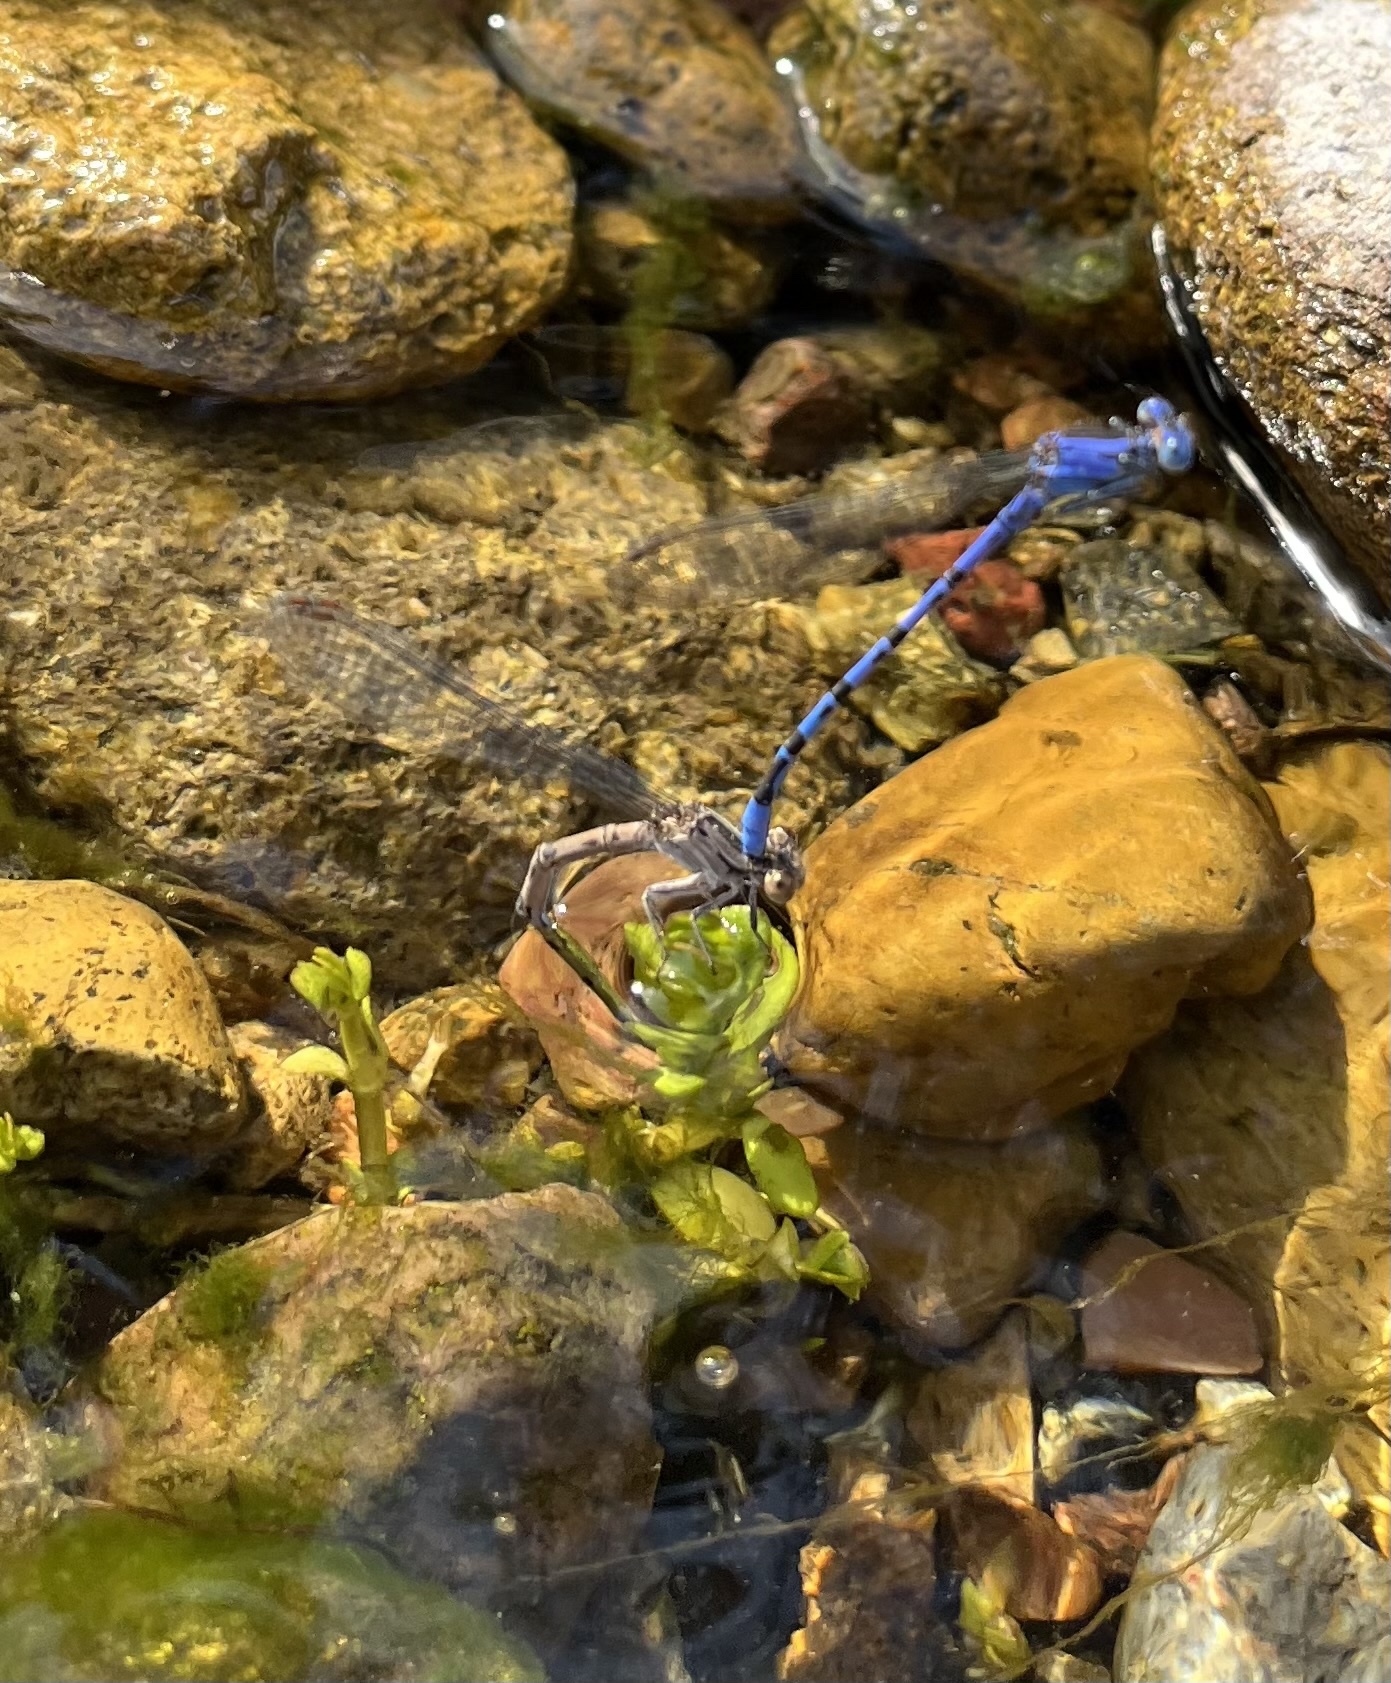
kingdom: Animalia
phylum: Arthropoda
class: Insecta
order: Odonata
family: Coenagrionidae
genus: Argia
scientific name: Argia vivida
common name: Vivid dancer
